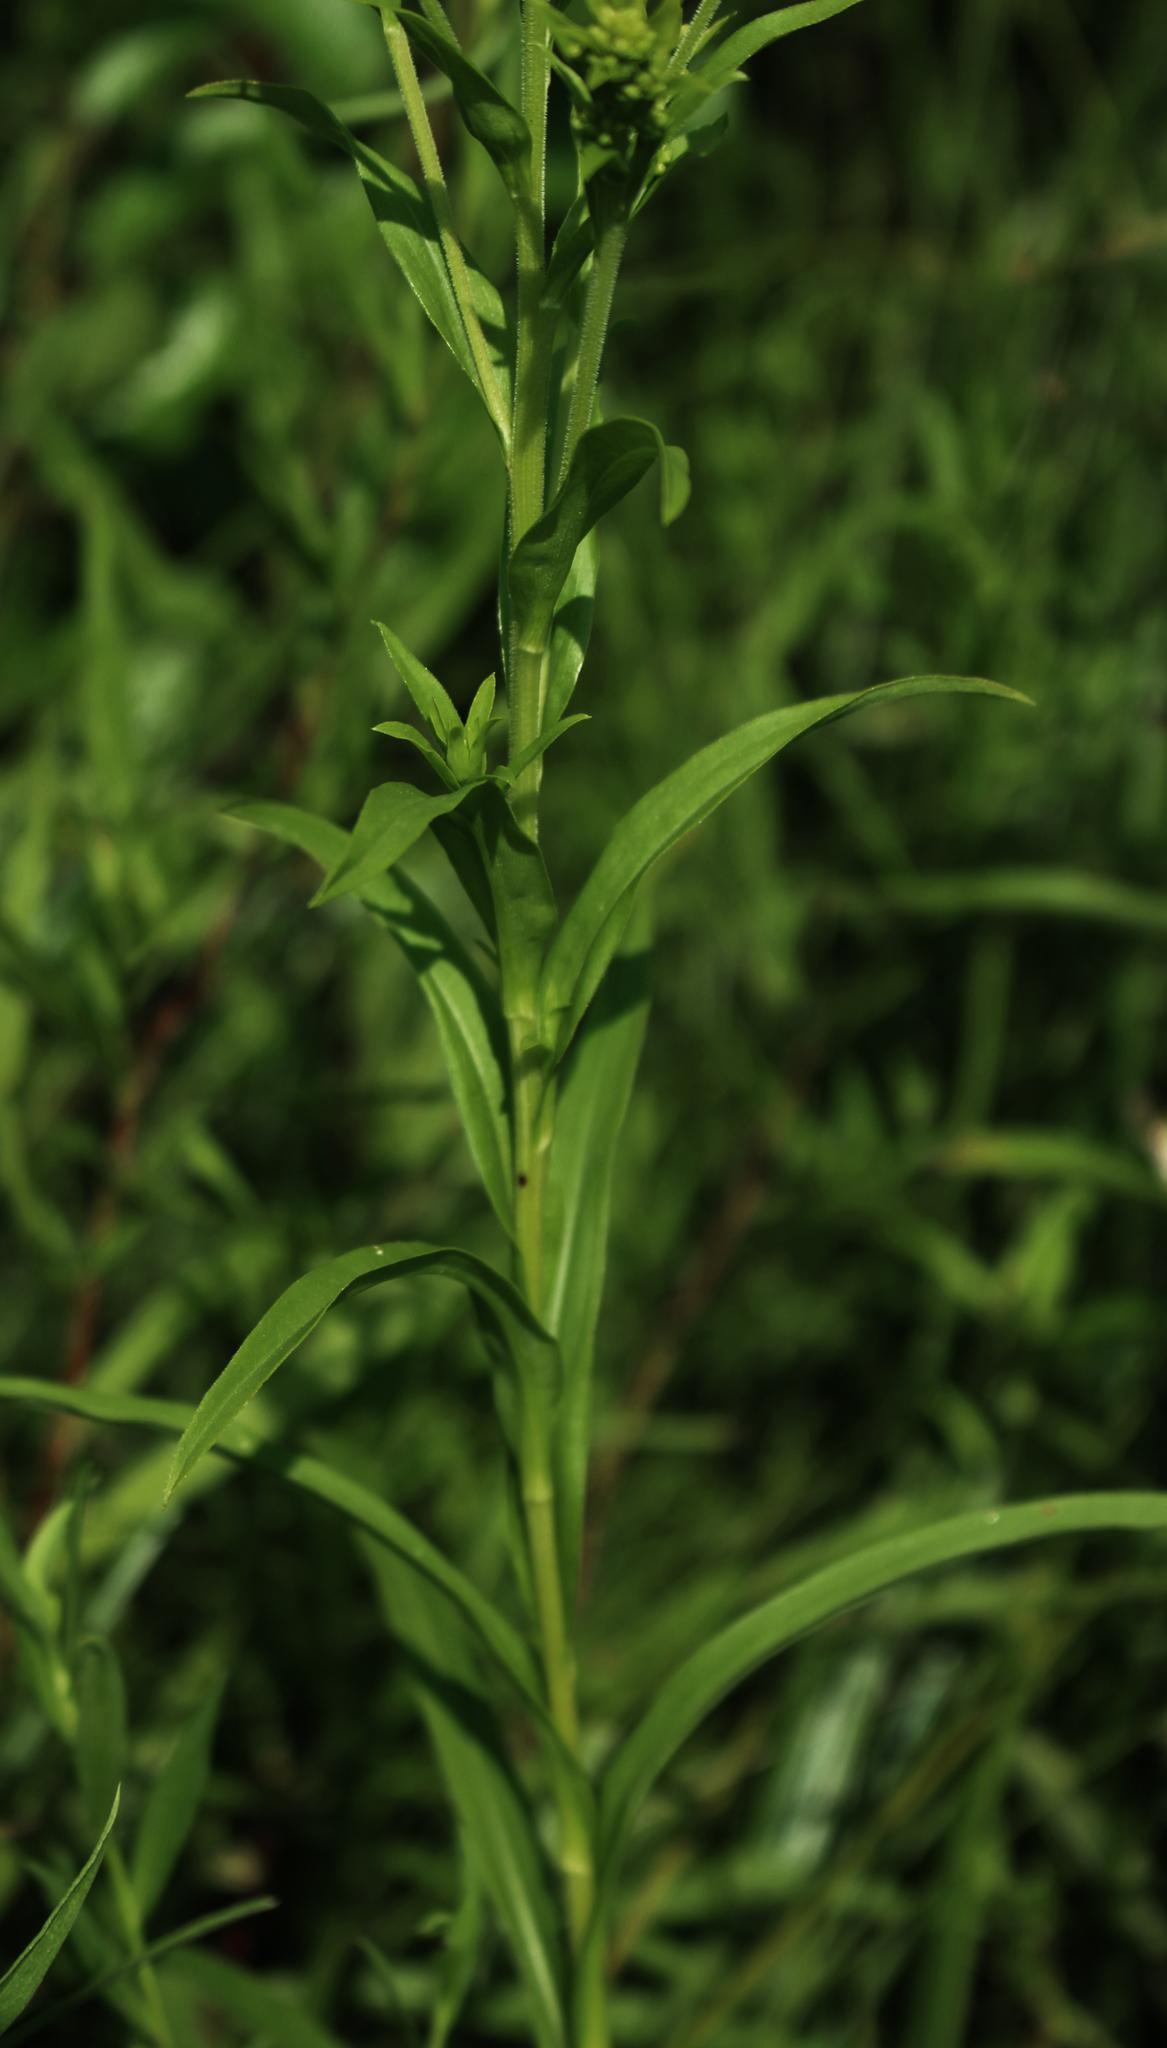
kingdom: Plantae
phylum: Tracheophyta
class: Magnoliopsida
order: Asterales
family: Asteraceae
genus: Solidago
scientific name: Solidago riddellii
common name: Riddell's goldenrod
